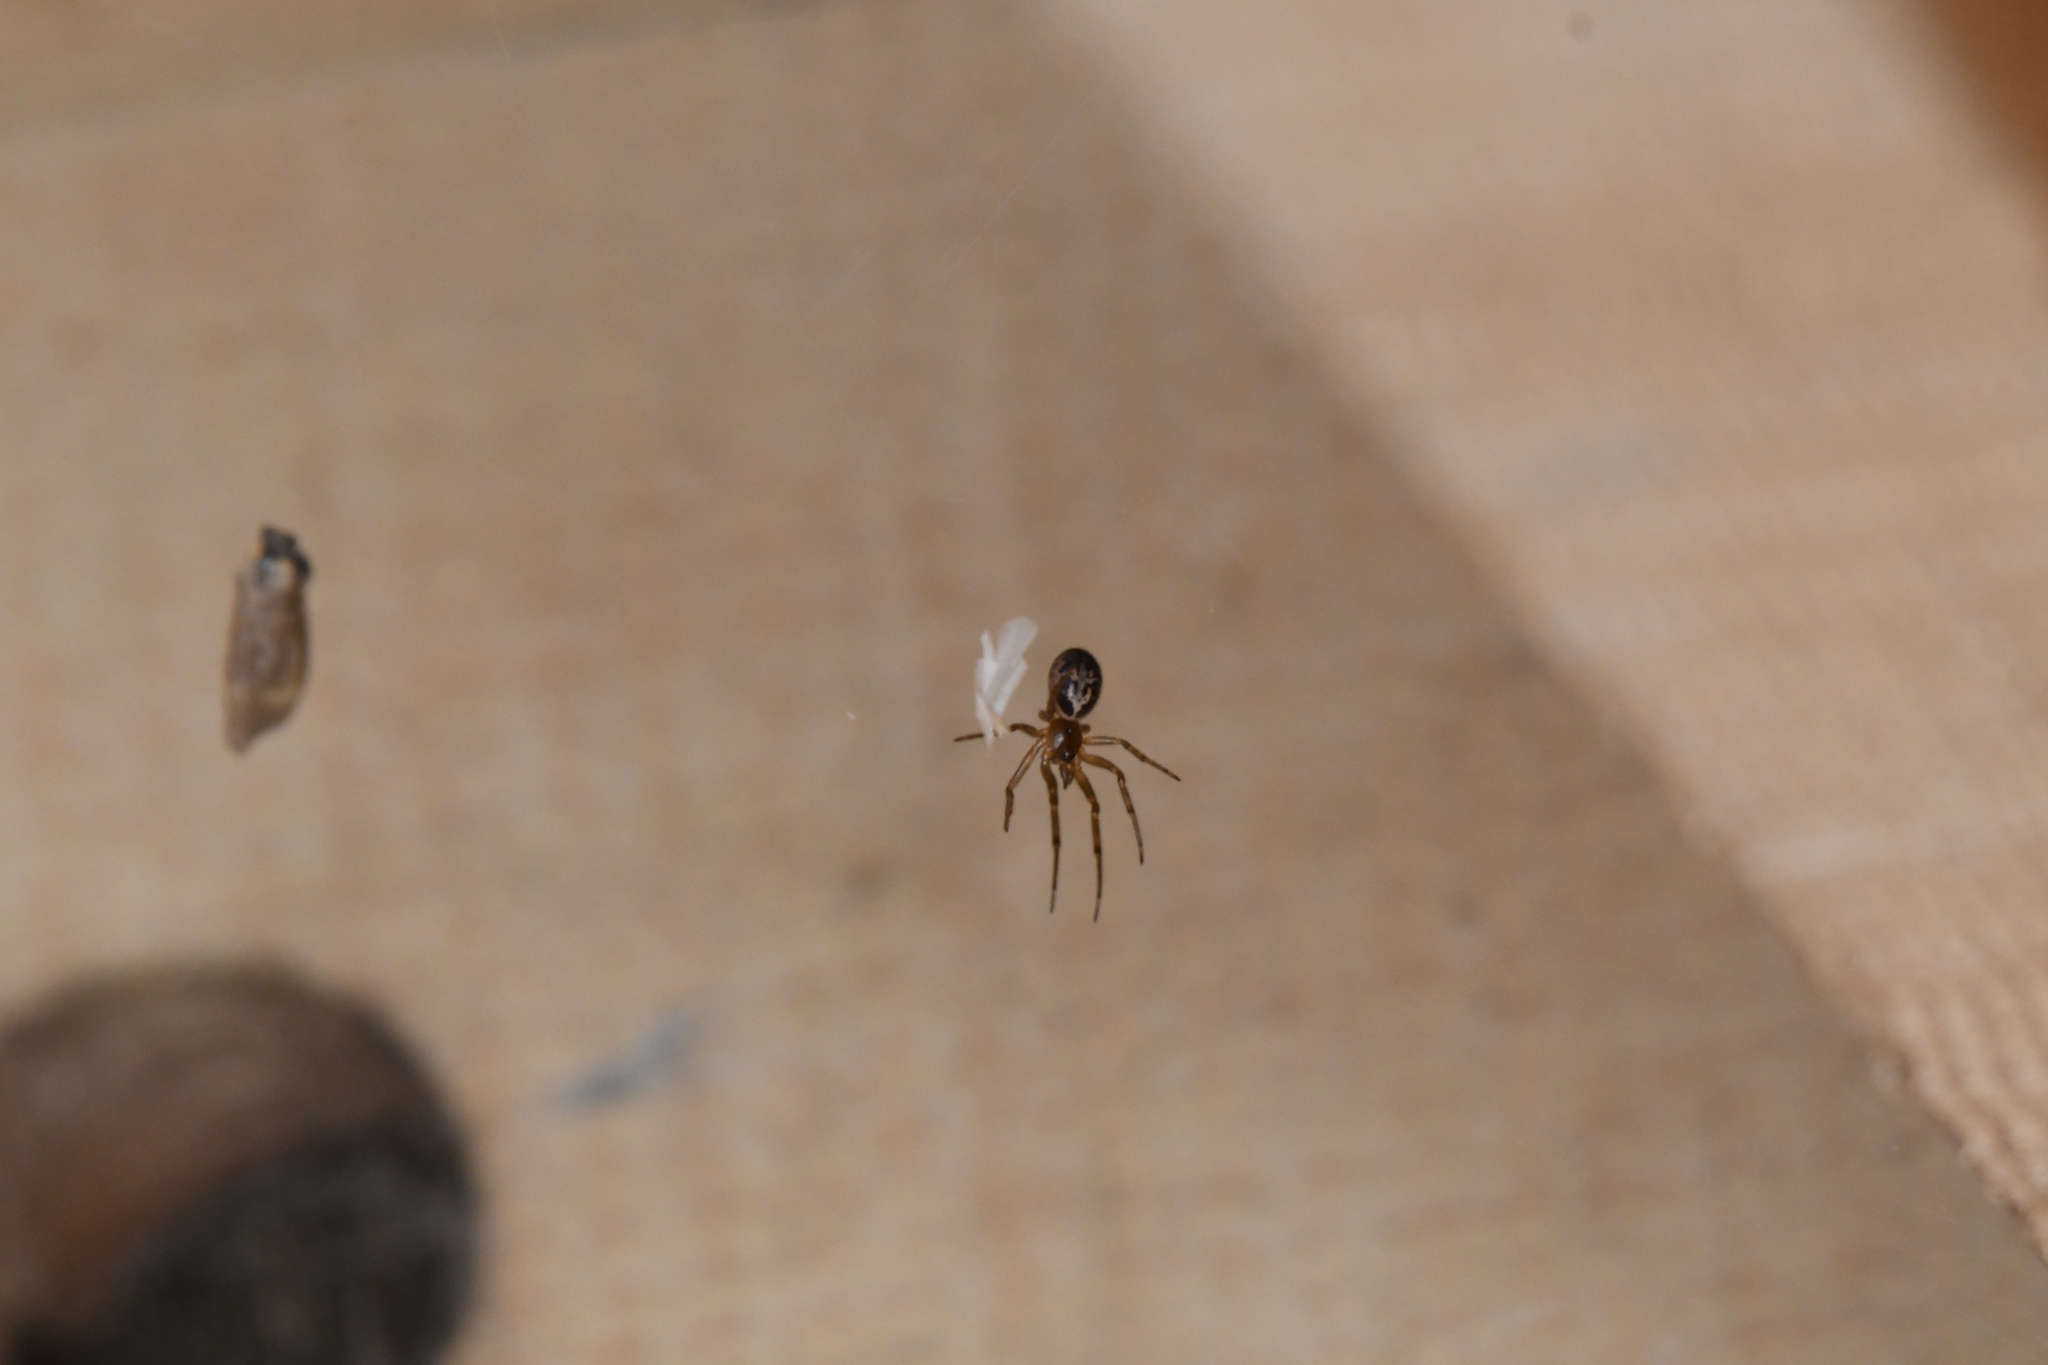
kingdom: Animalia
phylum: Arthropoda
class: Arachnida
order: Araneae
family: Theridiidae
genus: Steatoda
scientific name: Steatoda nobilis
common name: Cobweb weaver
